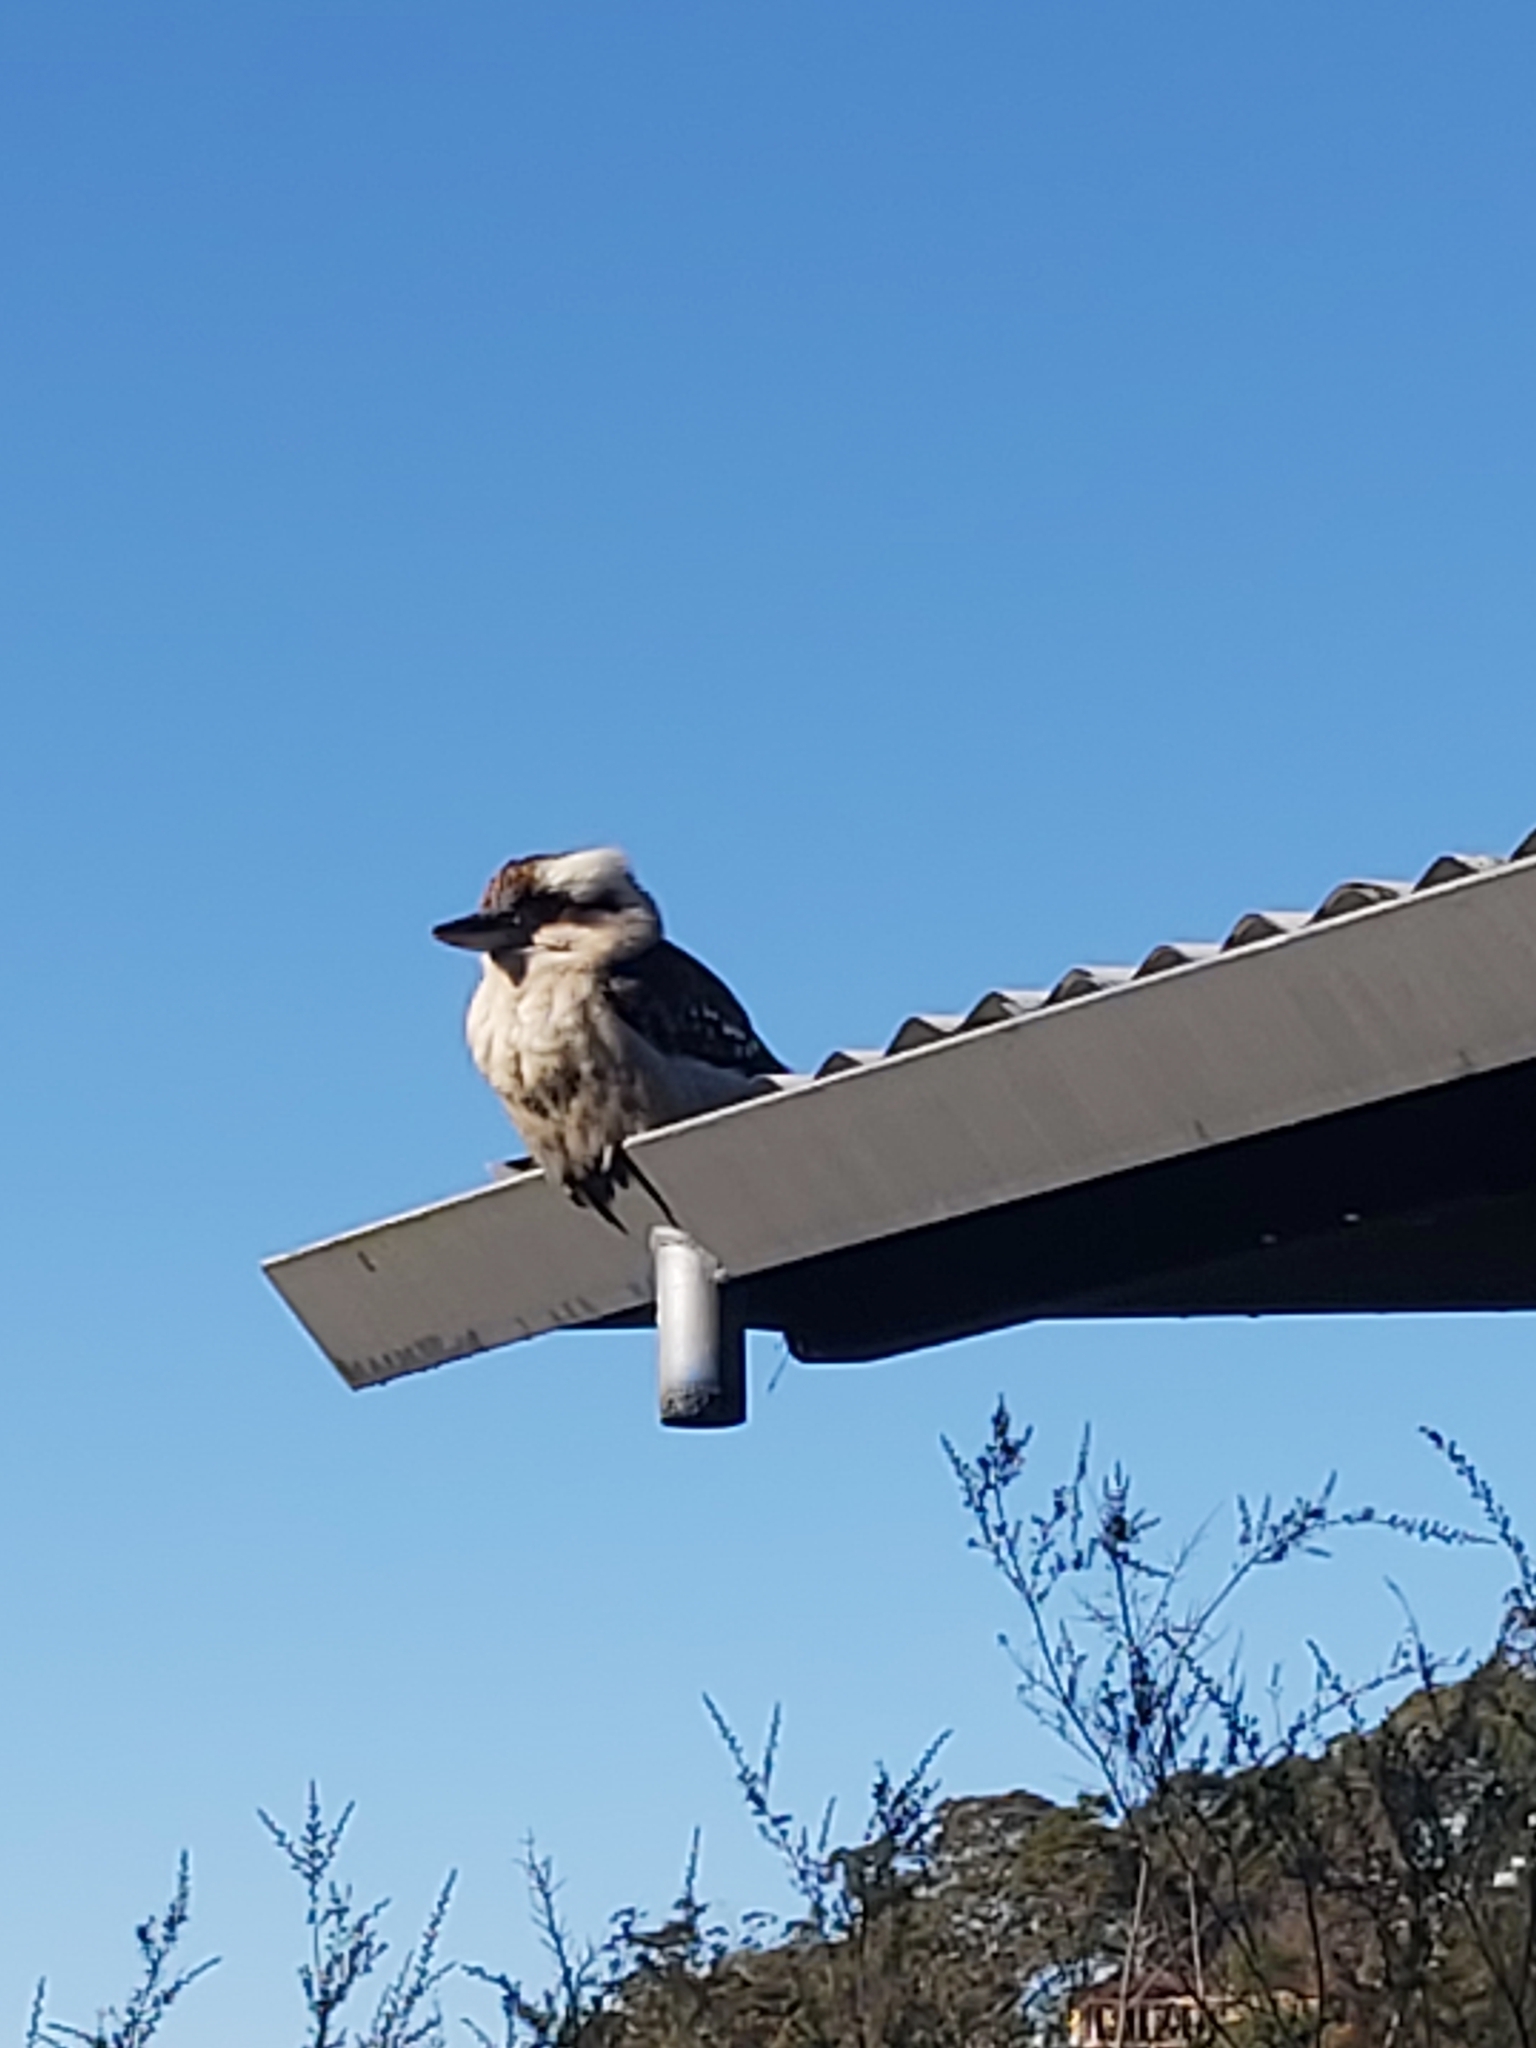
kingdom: Animalia
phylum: Chordata
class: Aves
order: Coraciiformes
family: Alcedinidae
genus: Dacelo
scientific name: Dacelo novaeguineae
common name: Laughing kookaburra
